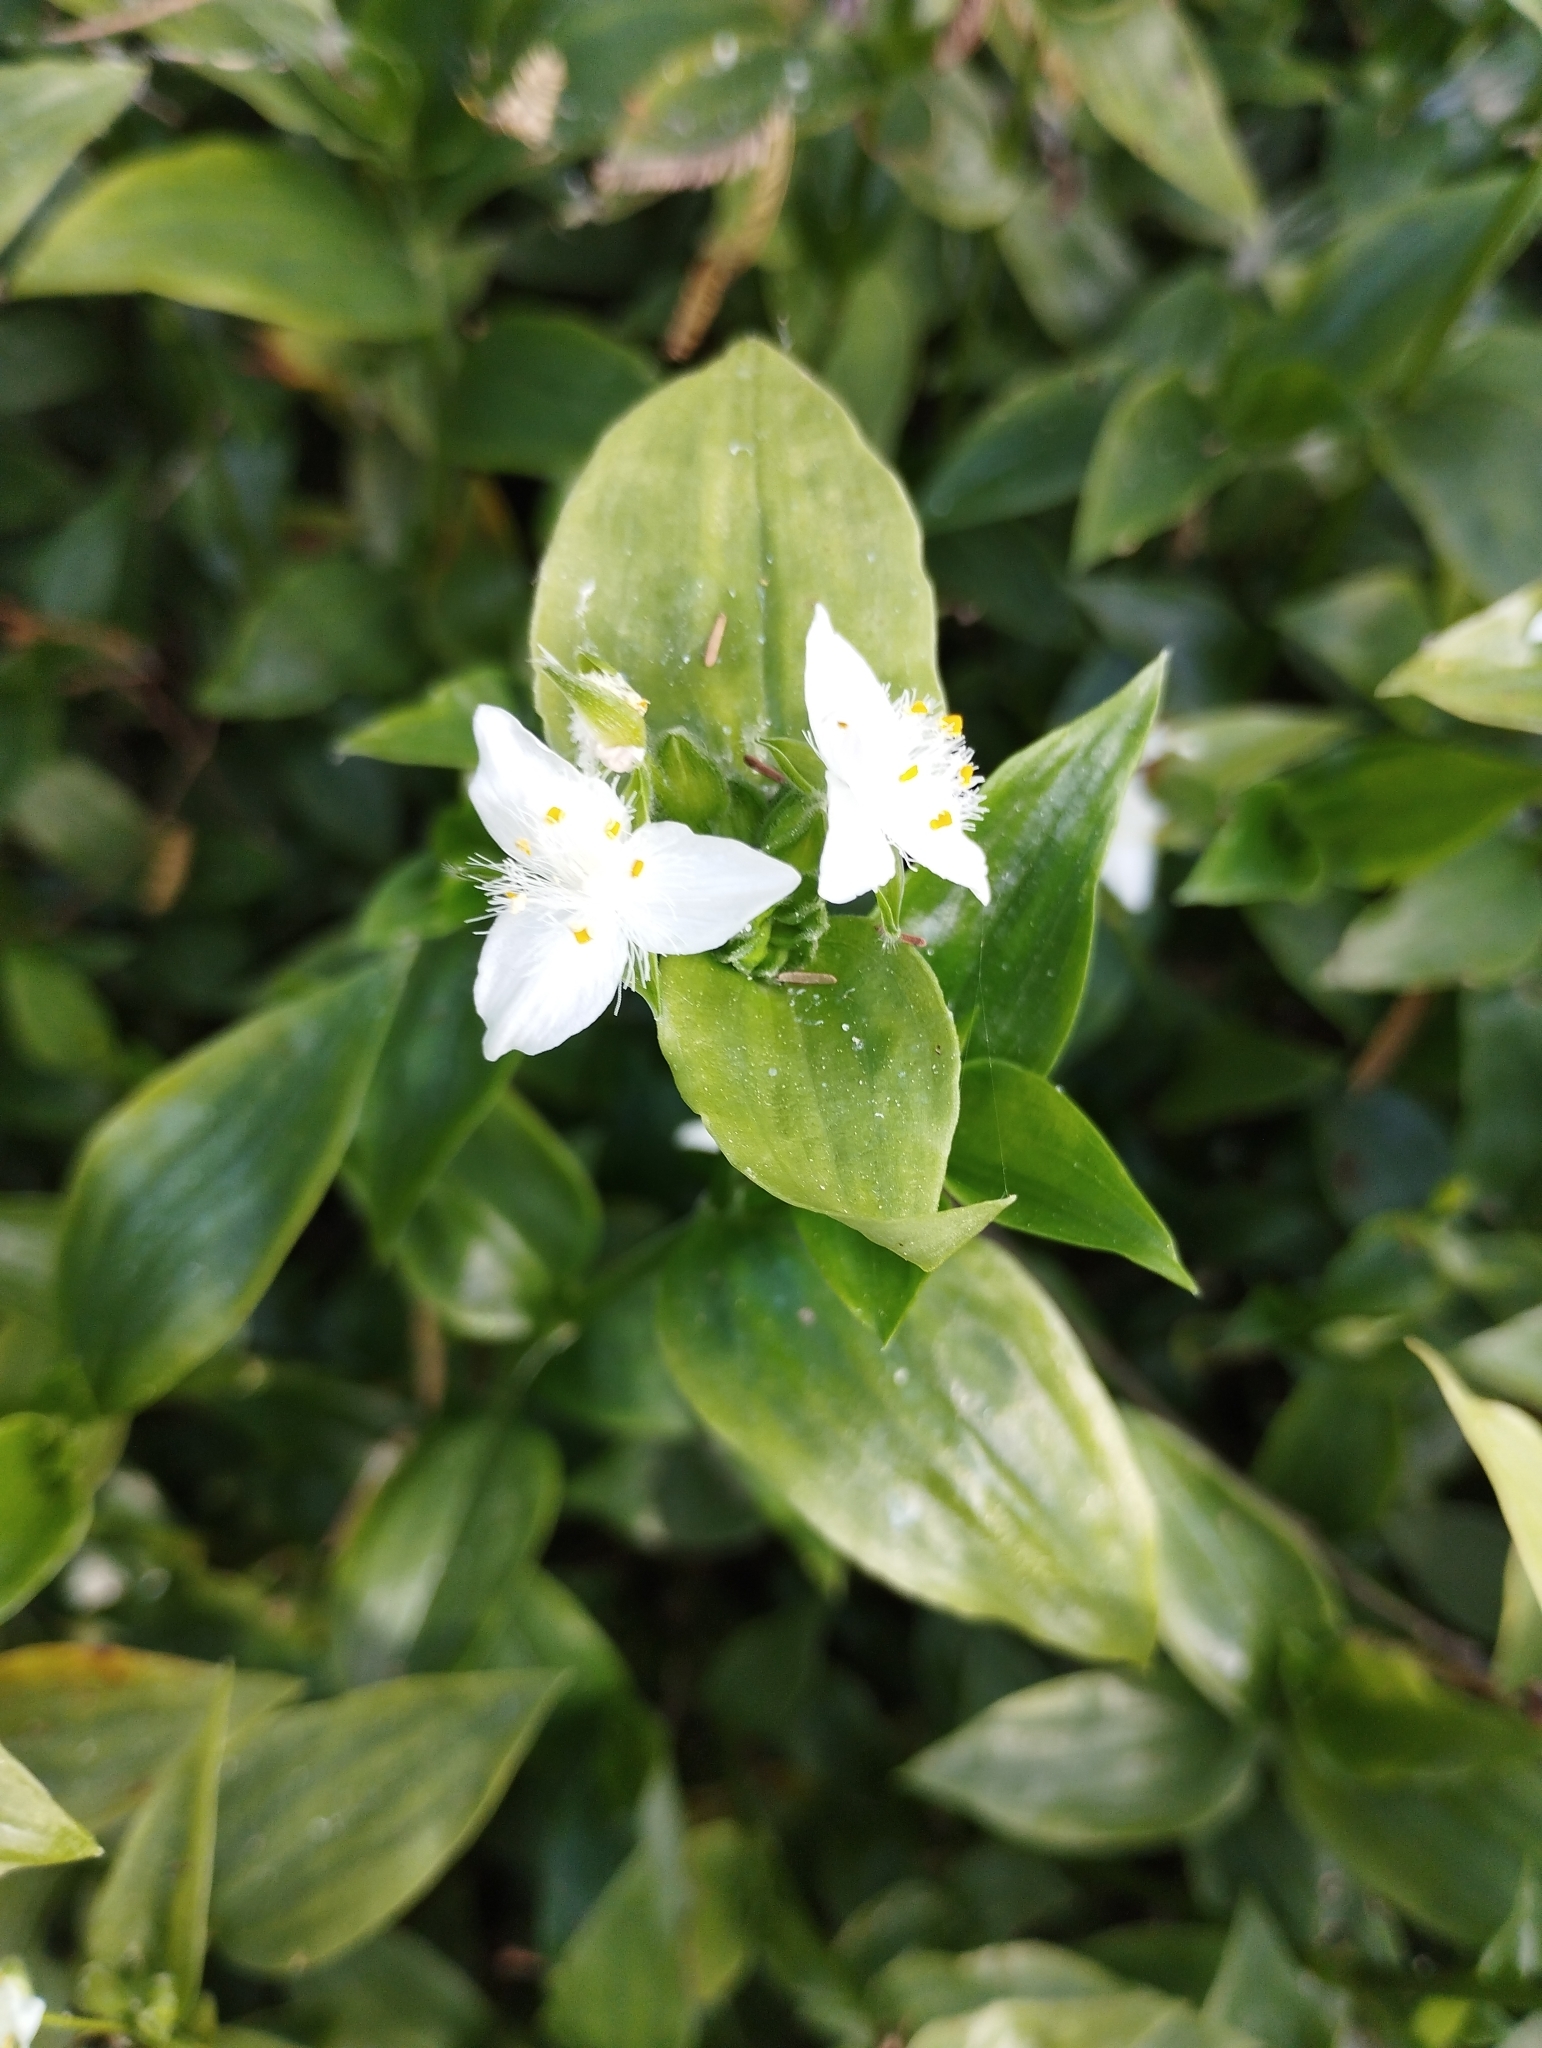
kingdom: Plantae
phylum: Tracheophyta
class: Liliopsida
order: Commelinales
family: Commelinaceae
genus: Tradescantia
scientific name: Tradescantia fluminensis
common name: Wandering-jew
